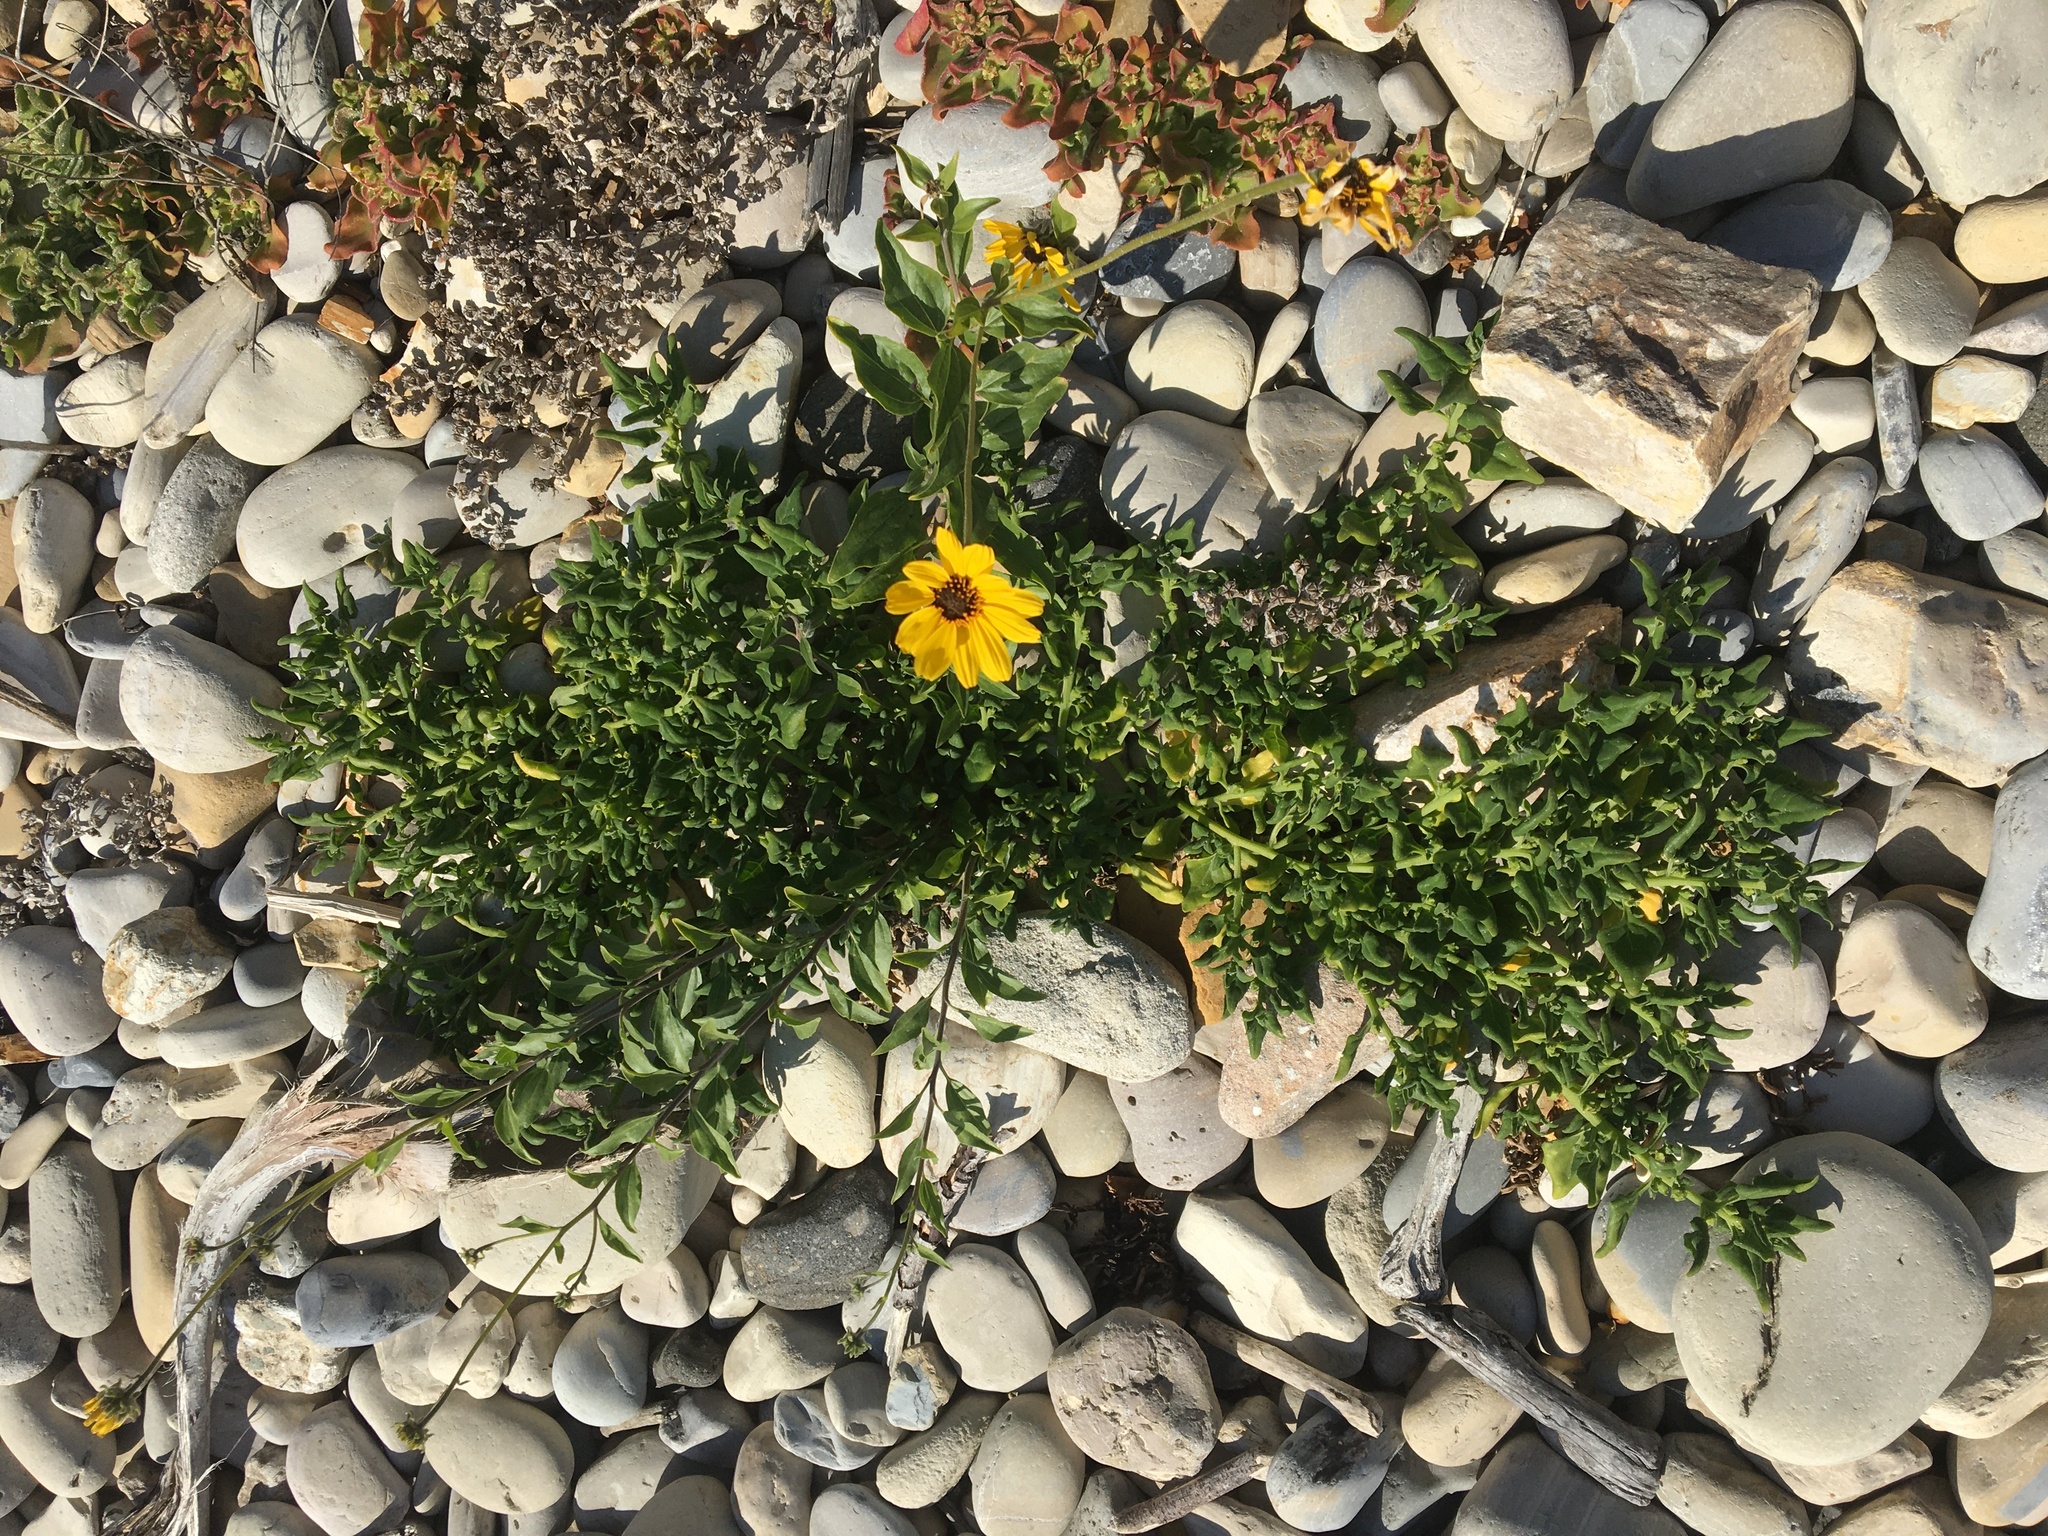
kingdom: Plantae
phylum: Tracheophyta
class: Magnoliopsida
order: Caryophyllales
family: Aizoaceae
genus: Tetragonia
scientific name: Tetragonia tetragonoides
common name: New zealand-spinach
